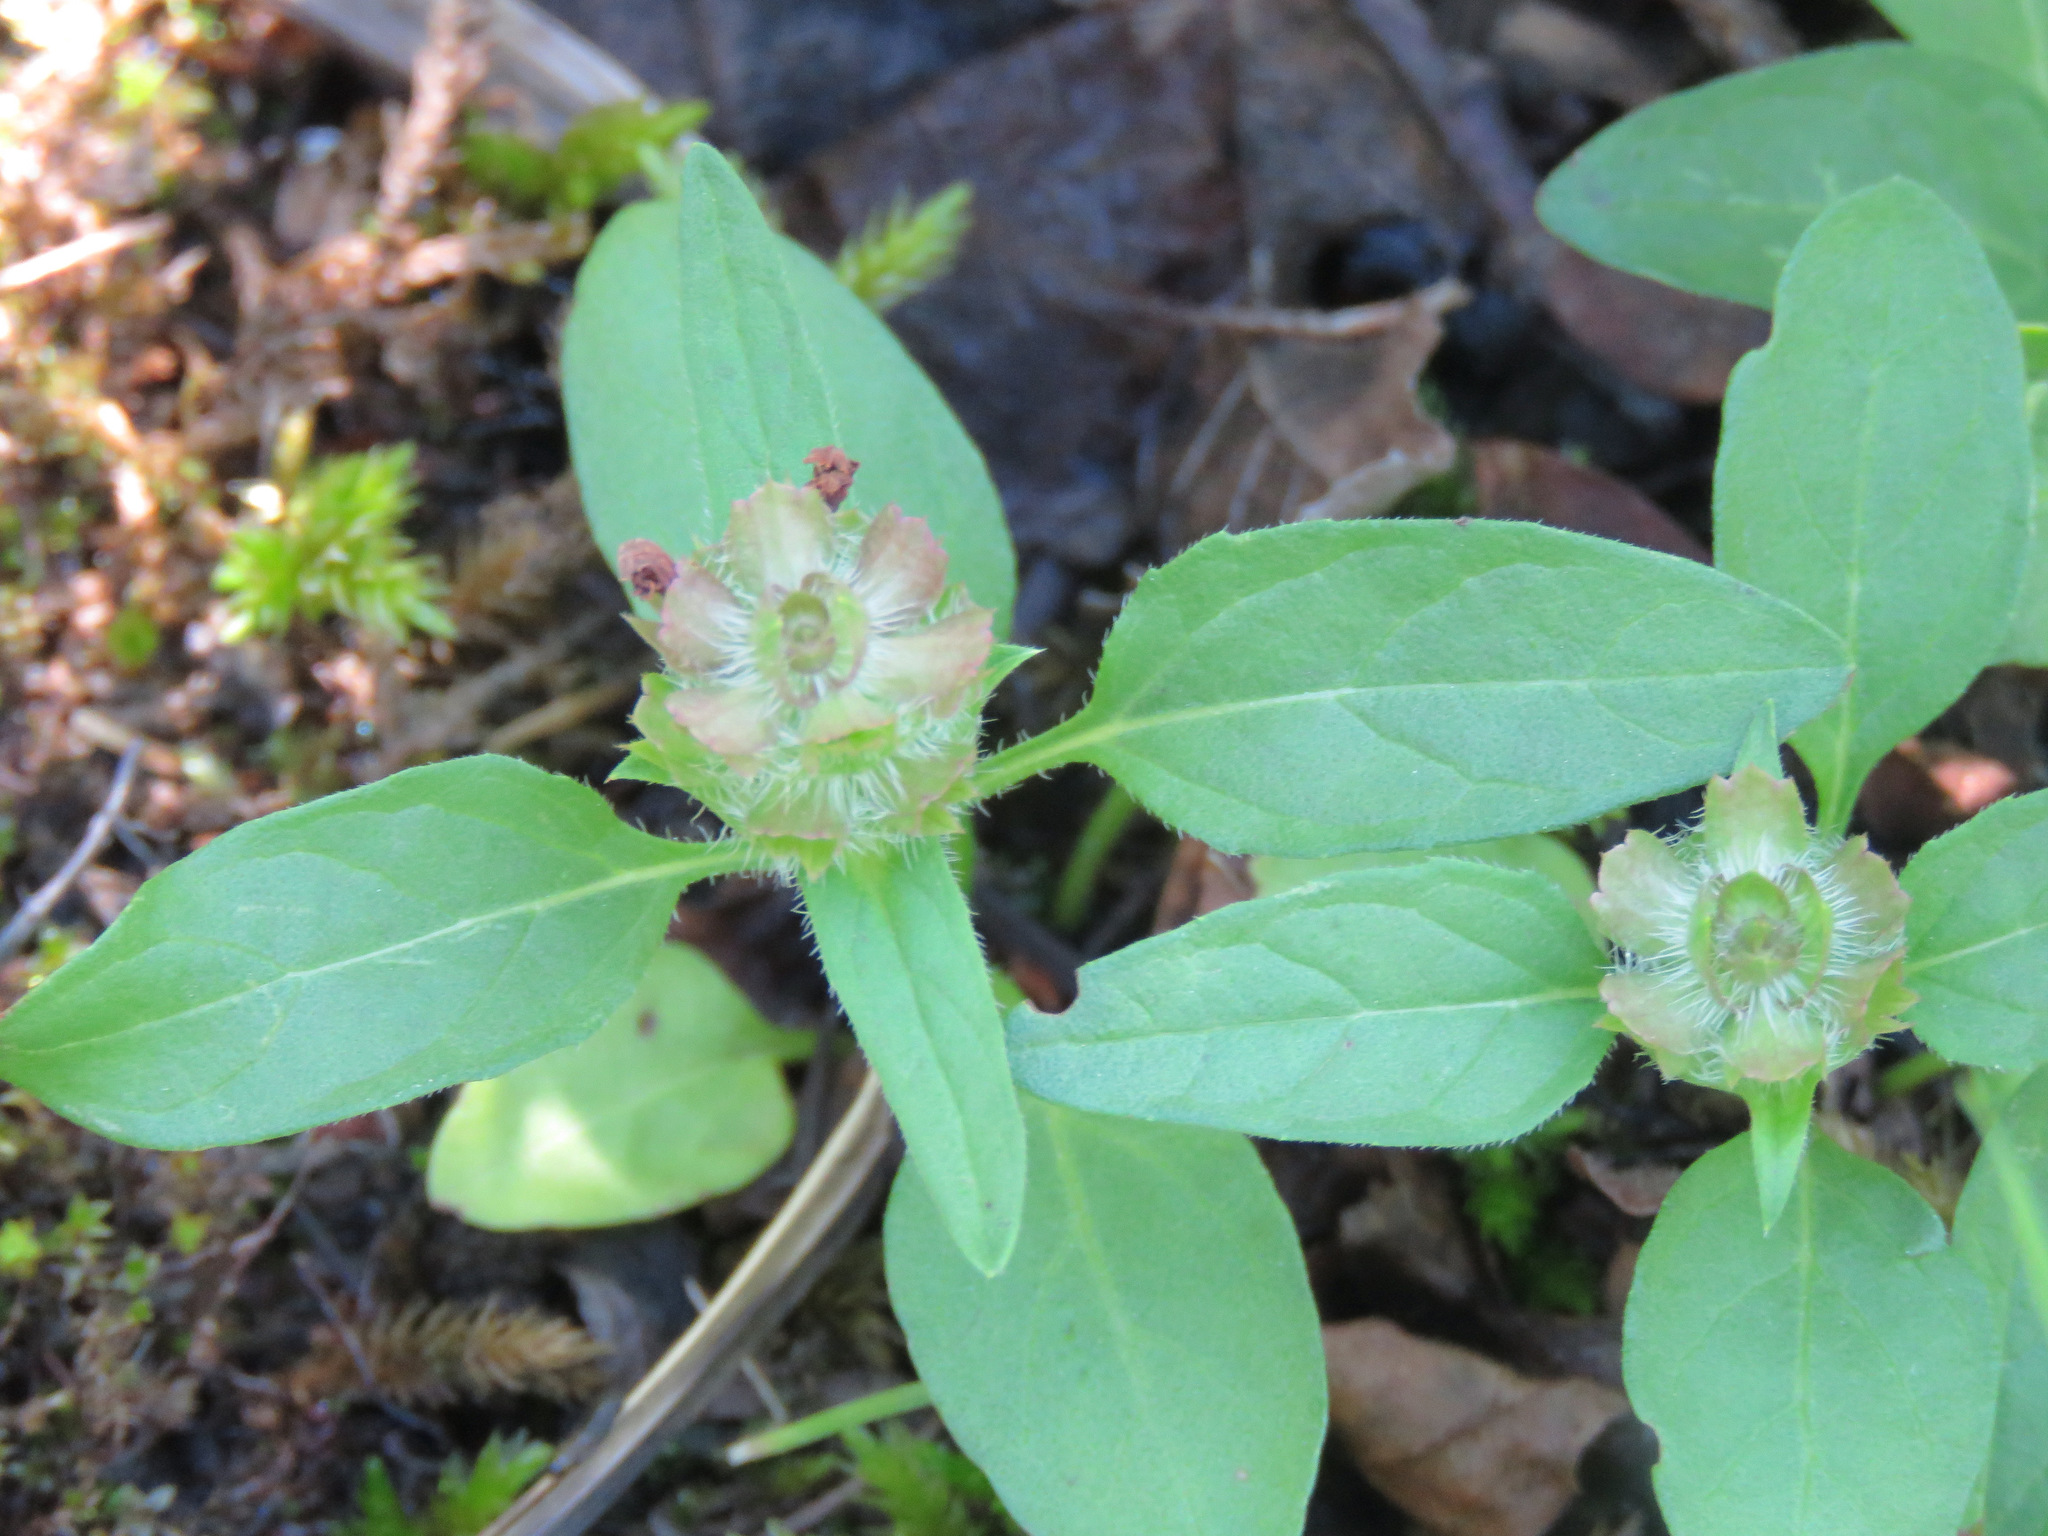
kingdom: Plantae
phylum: Tracheophyta
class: Magnoliopsida
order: Lamiales
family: Lamiaceae
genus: Prunella
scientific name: Prunella vulgaris
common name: Heal-all
